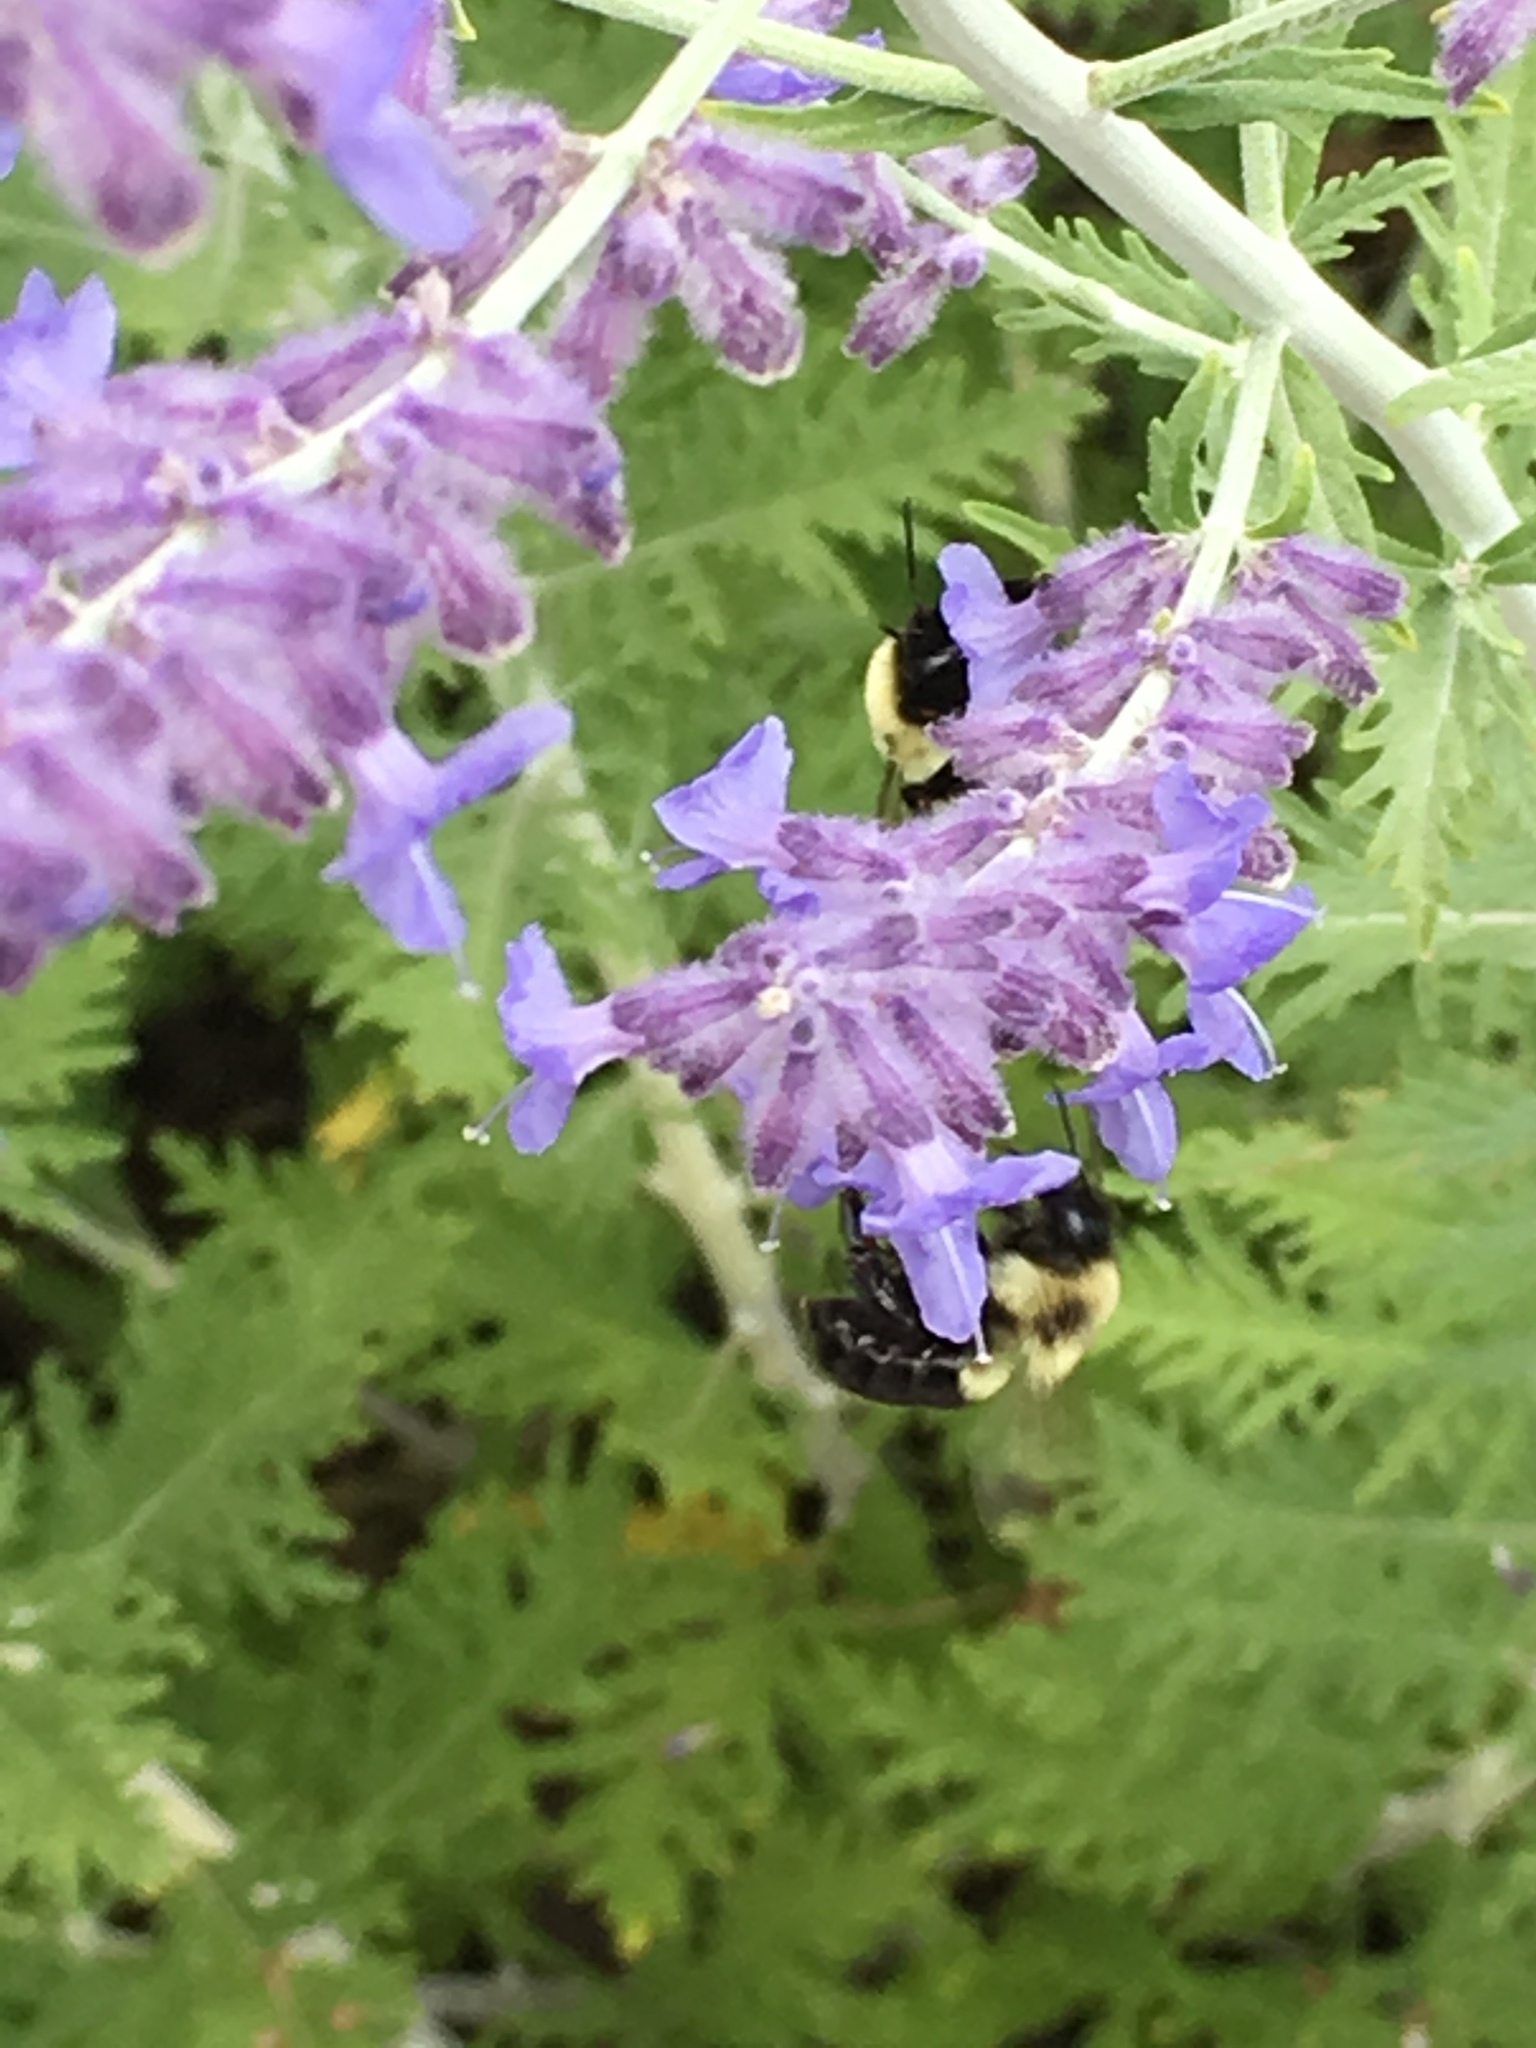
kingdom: Animalia
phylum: Arthropoda
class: Insecta
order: Hymenoptera
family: Apidae
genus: Bombus
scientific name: Bombus impatiens
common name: Common eastern bumble bee
